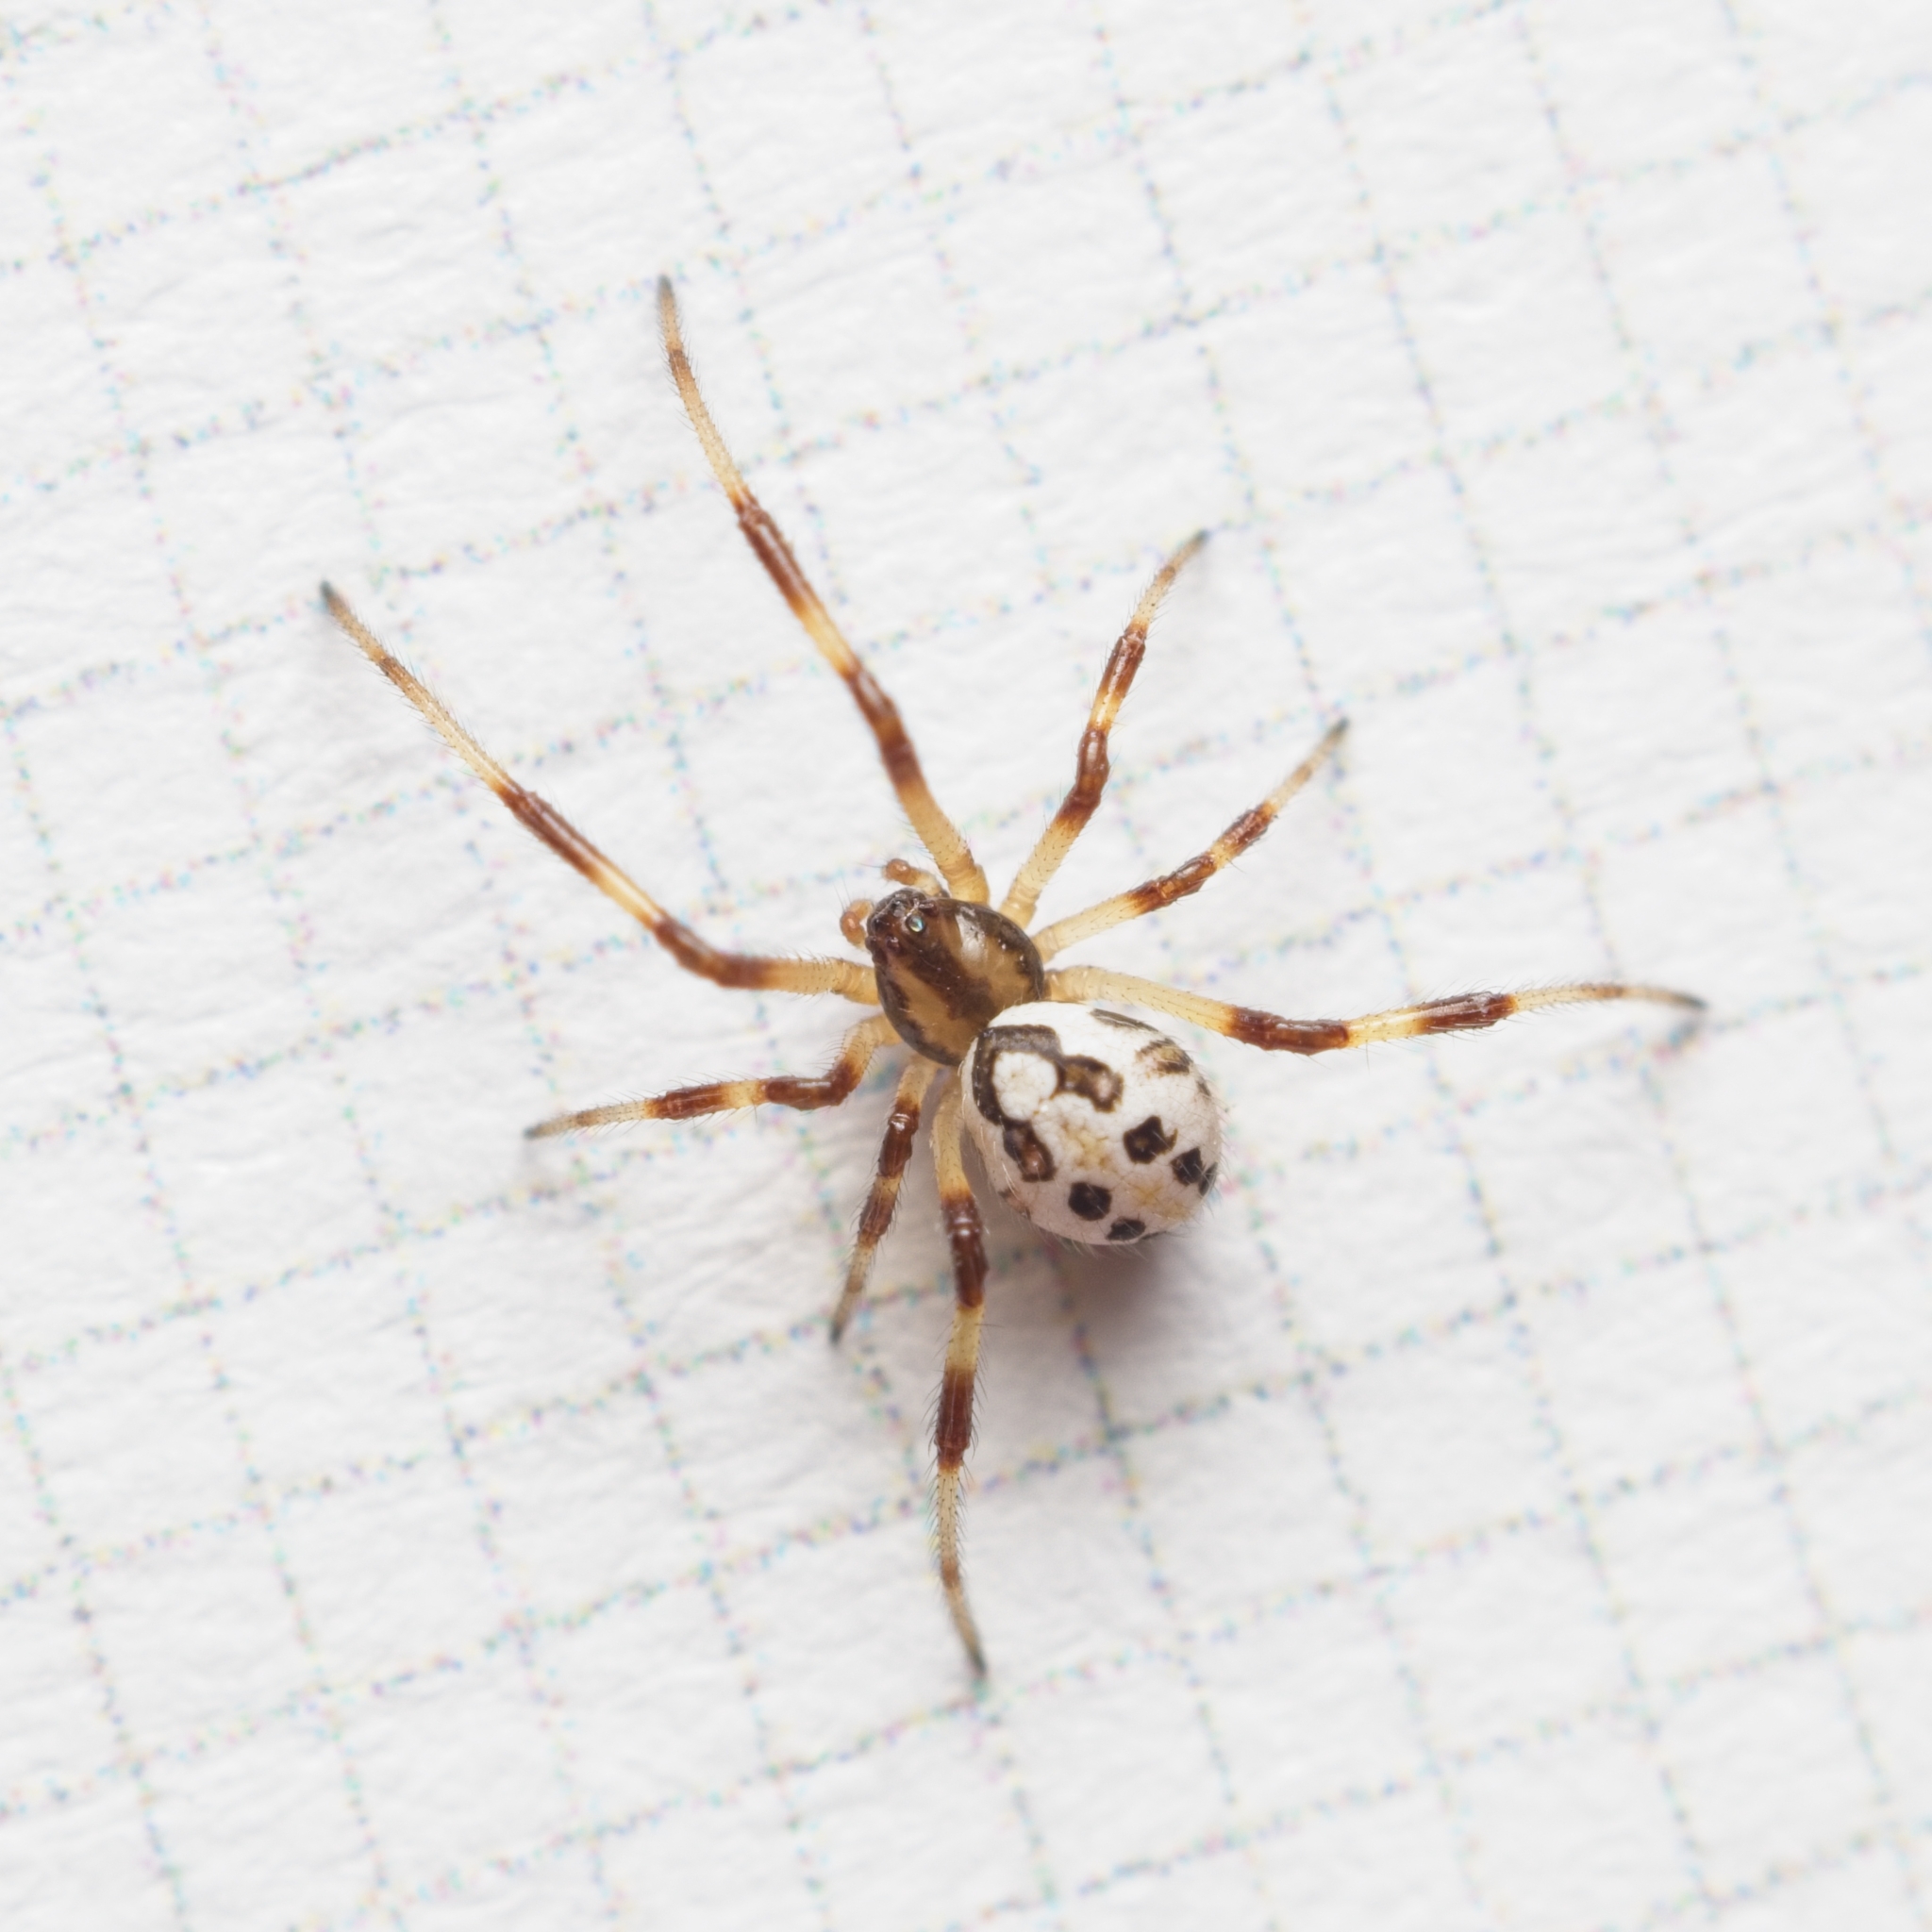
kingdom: Animalia
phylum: Arthropoda
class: Arachnida
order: Araneae
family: Theridiidae
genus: Latrodectus
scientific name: Latrodectus katipo
